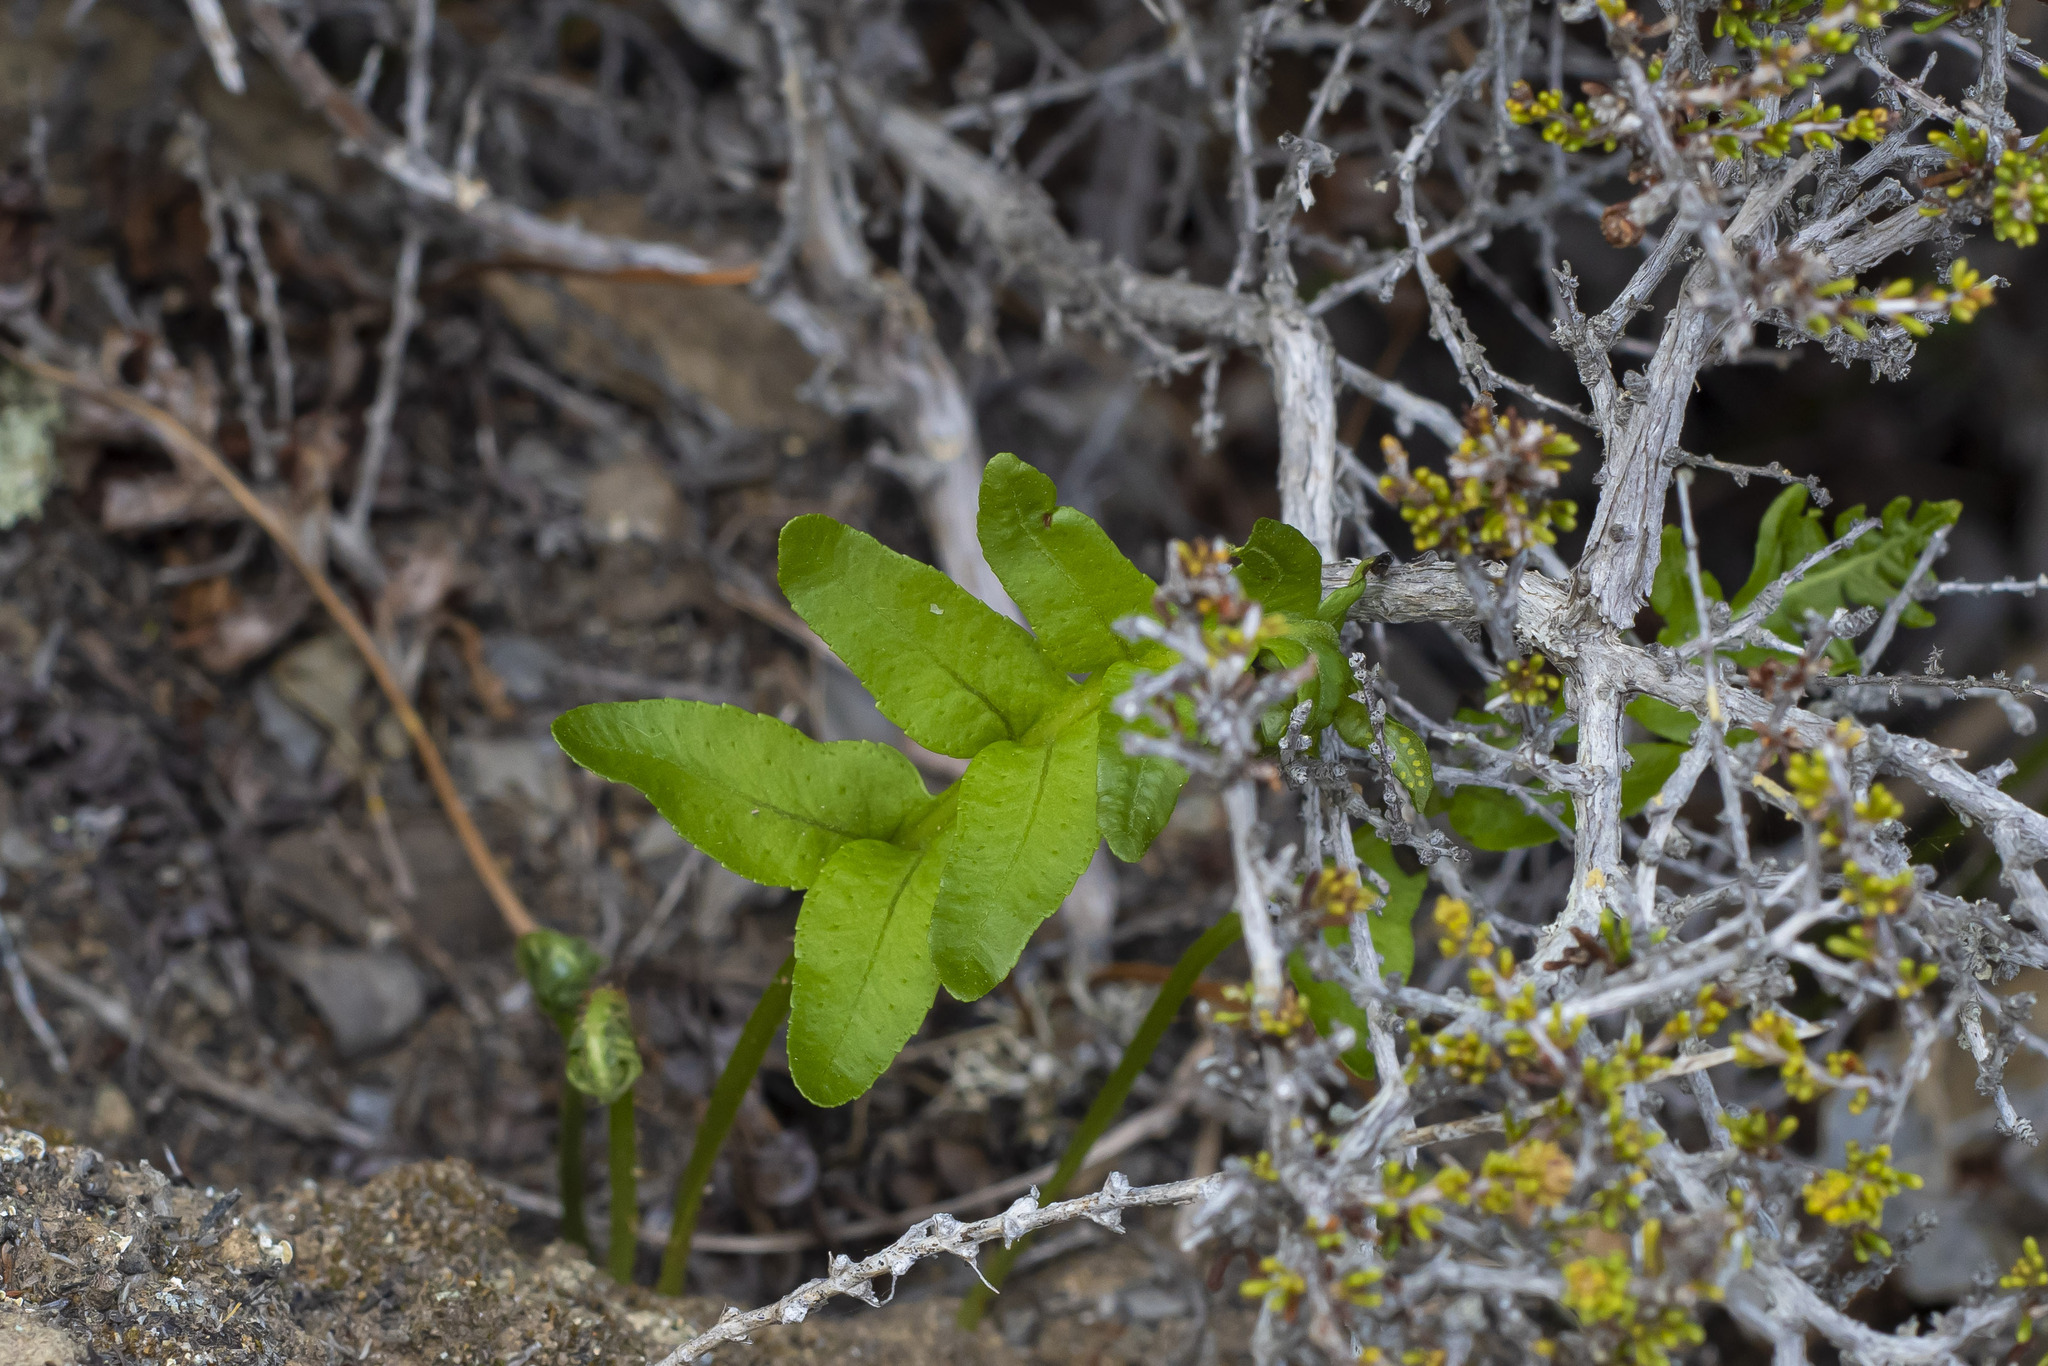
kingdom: Plantae
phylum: Tracheophyta
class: Polypodiopsida
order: Polypodiales
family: Polypodiaceae
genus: Polypodium
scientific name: Polypodium californicum
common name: California polypody
